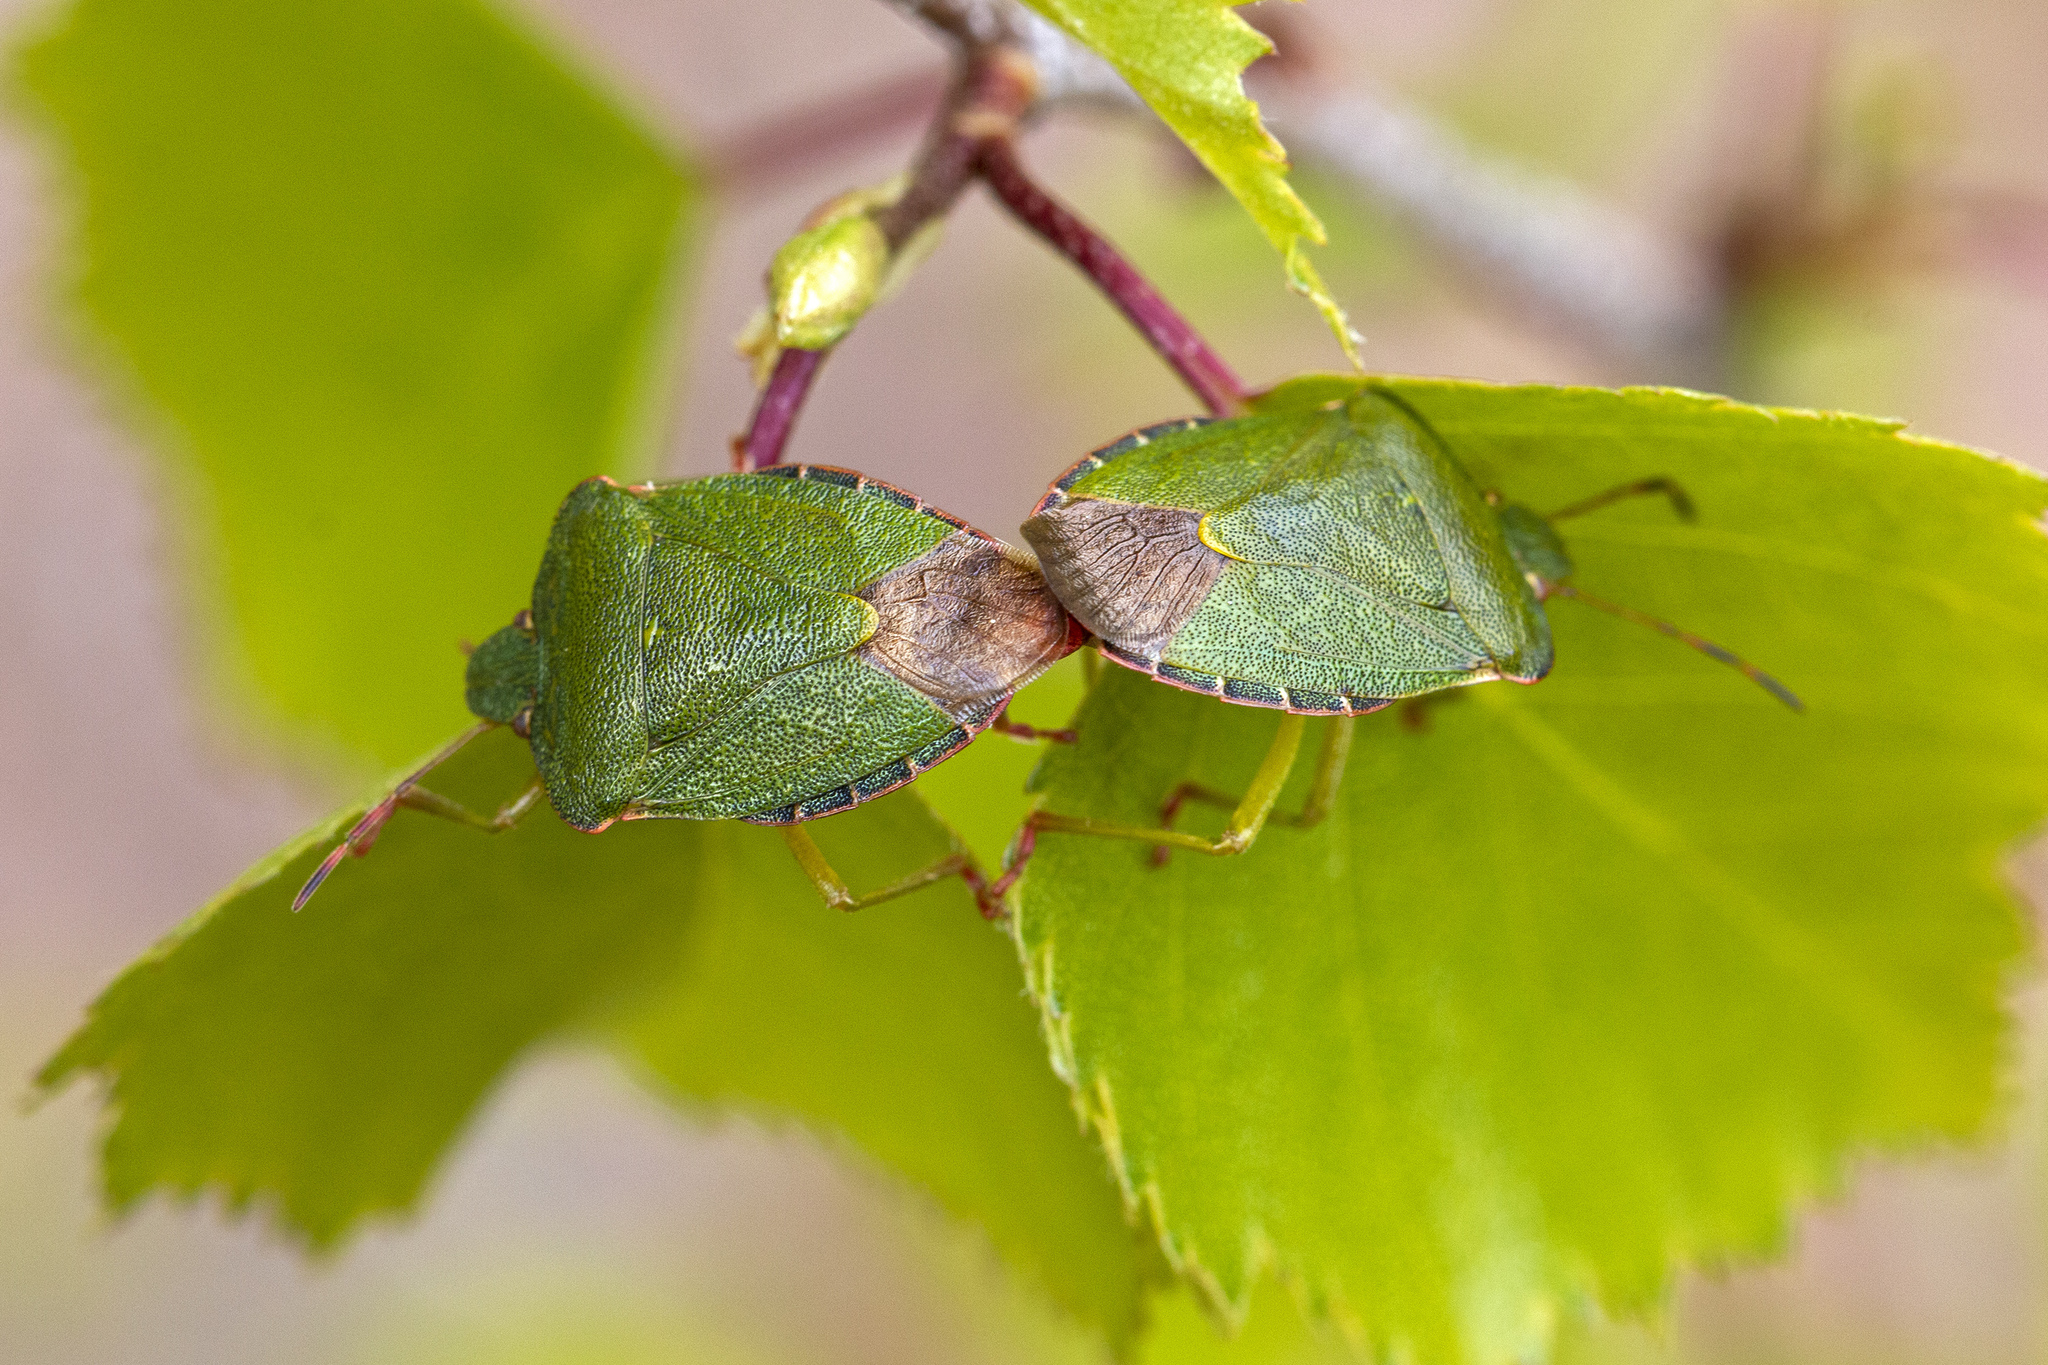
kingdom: Animalia
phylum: Arthropoda
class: Insecta
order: Hemiptera
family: Pentatomidae
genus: Palomena
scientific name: Palomena prasina
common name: Green shieldbug
